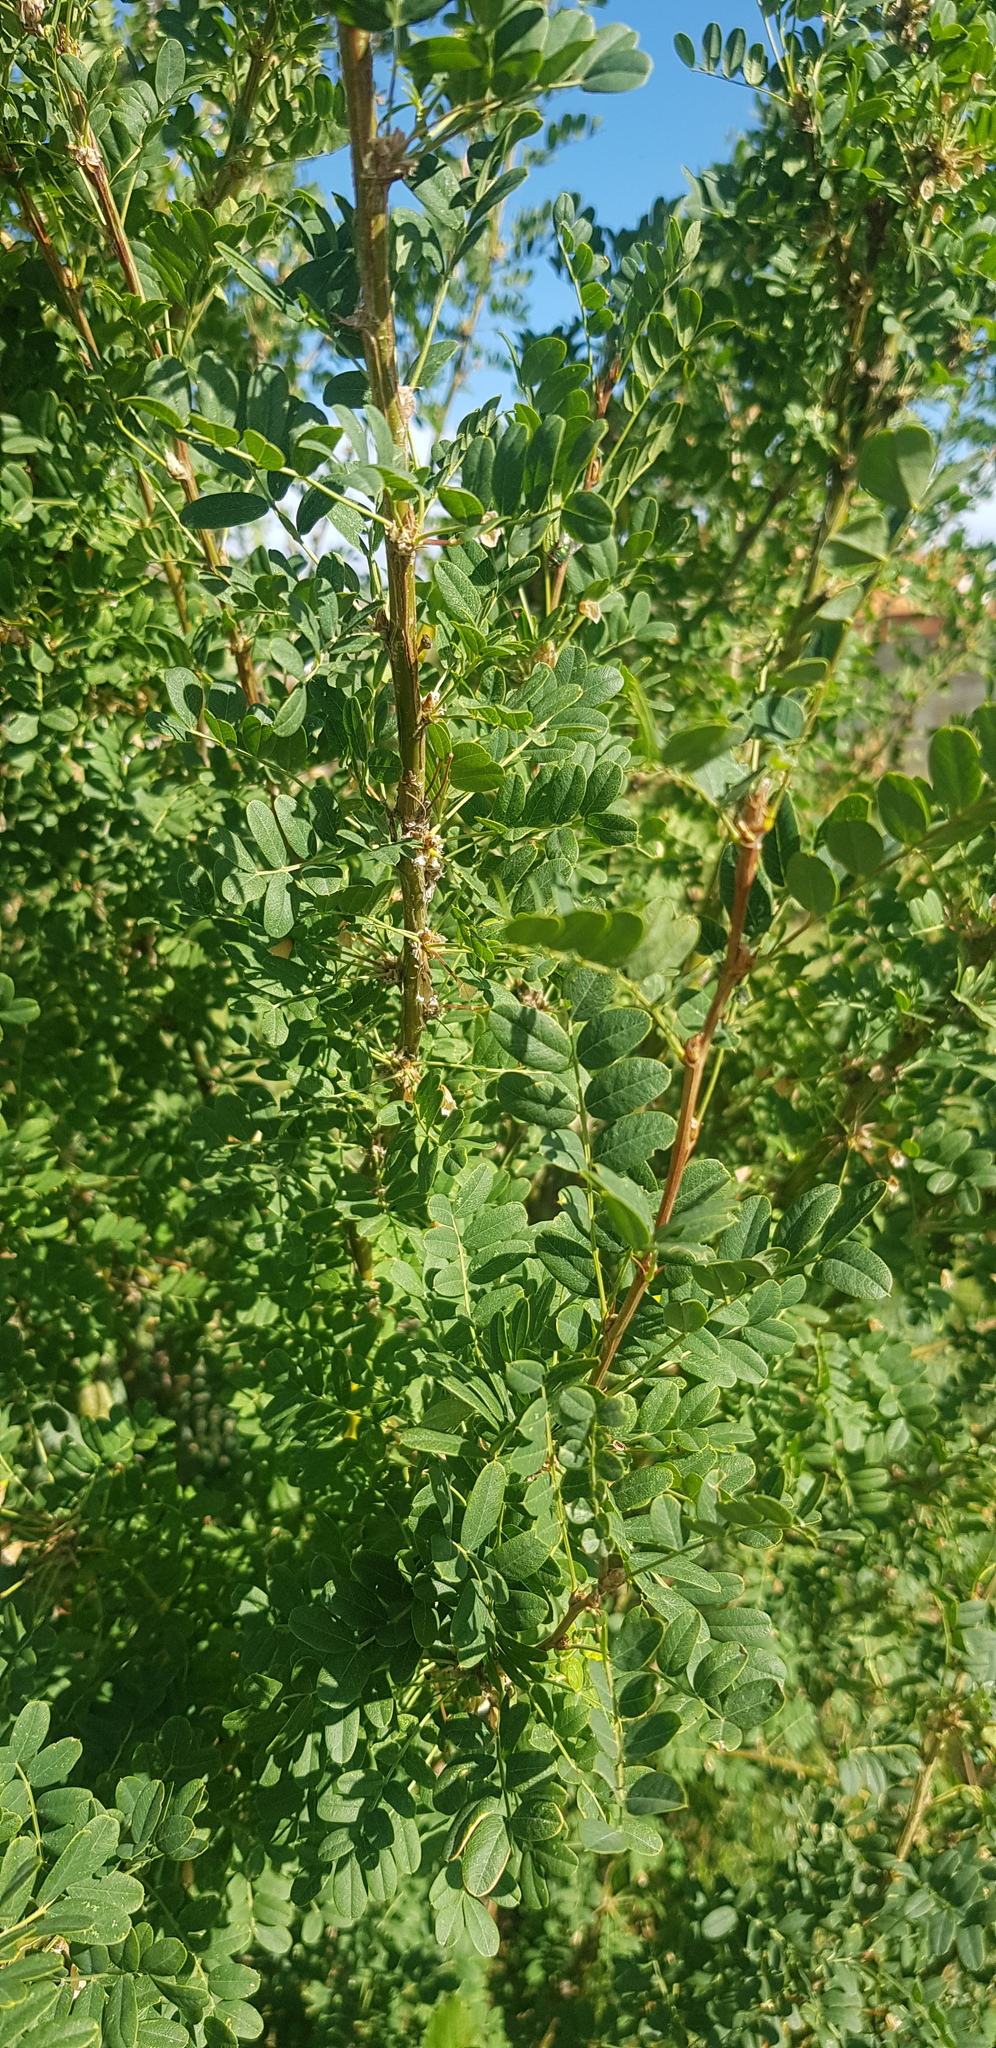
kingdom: Plantae
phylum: Tracheophyta
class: Magnoliopsida
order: Fabales
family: Fabaceae
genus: Caragana
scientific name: Caragana arborescens
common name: Siberian peashrub
